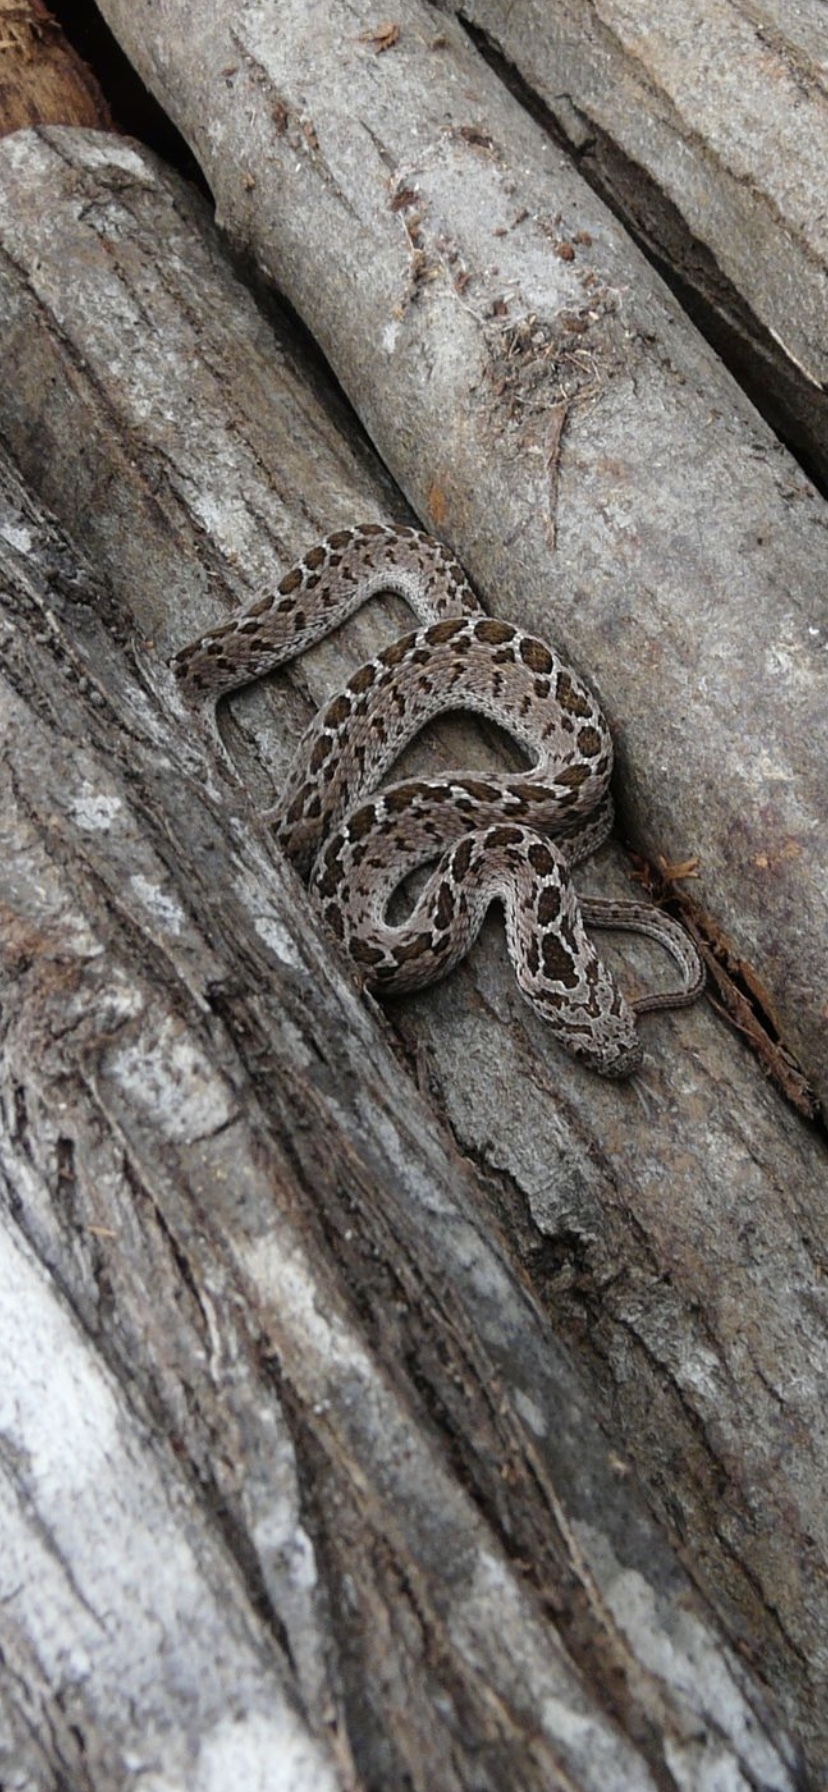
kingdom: Animalia
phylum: Chordata
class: Squamata
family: Colubridae
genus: Dasypeltis
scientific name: Dasypeltis scabra
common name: Common egg eater
